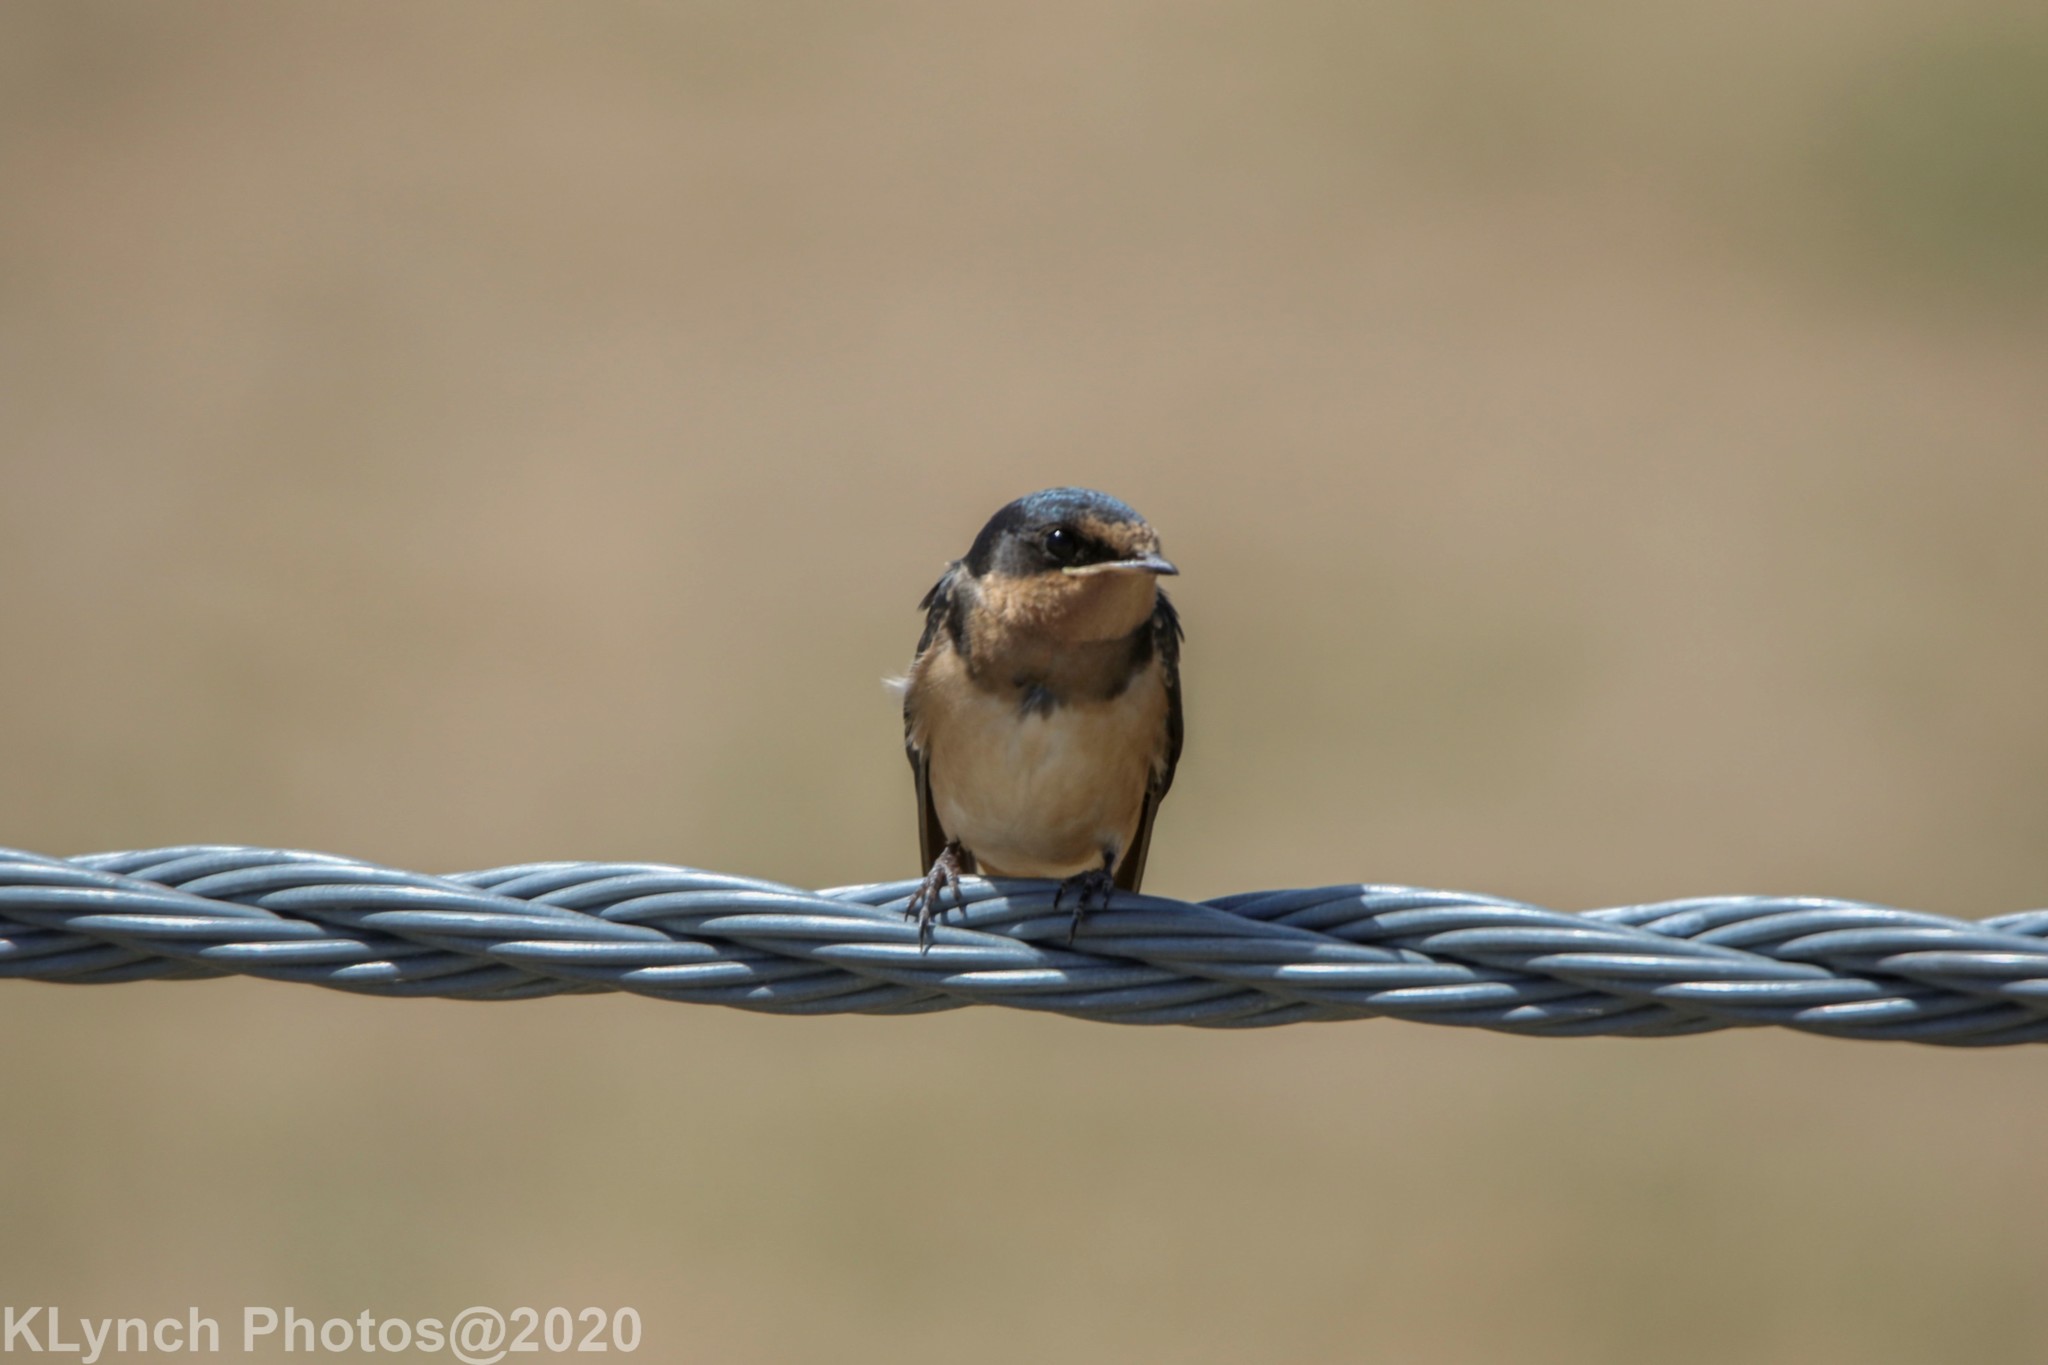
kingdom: Animalia
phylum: Chordata
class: Aves
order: Passeriformes
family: Hirundinidae
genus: Hirundo
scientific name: Hirundo rustica
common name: Barn swallow
